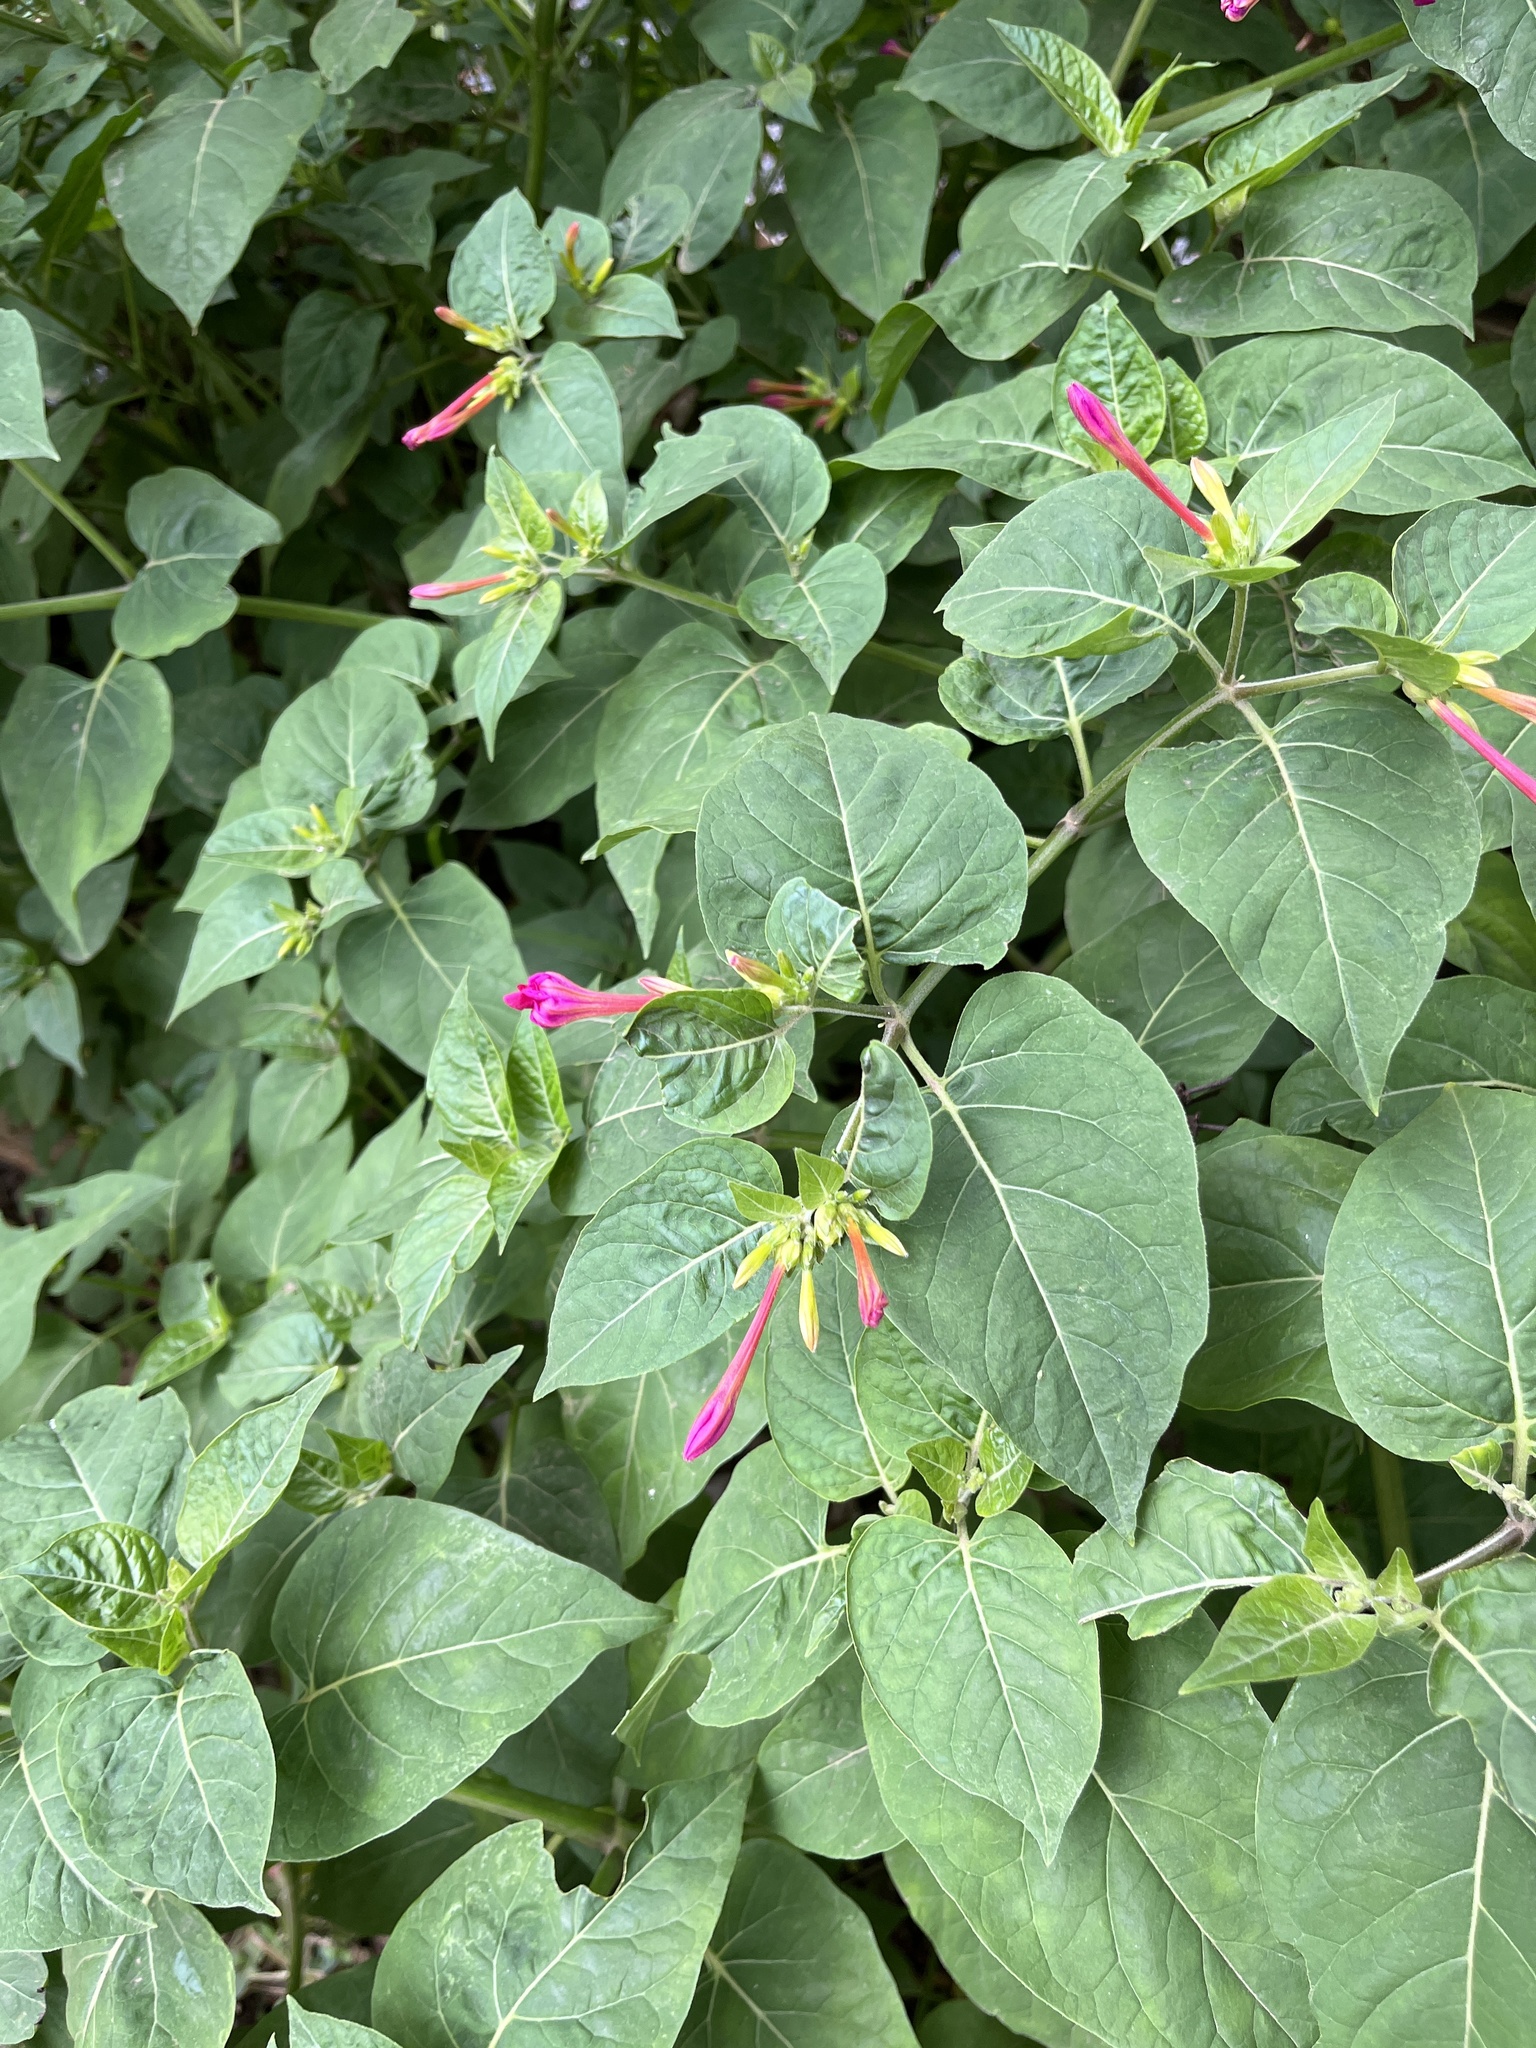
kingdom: Plantae
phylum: Tracheophyta
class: Magnoliopsida
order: Caryophyllales
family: Nyctaginaceae
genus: Mirabilis
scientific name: Mirabilis jalapa
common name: Marvel-of-peru
